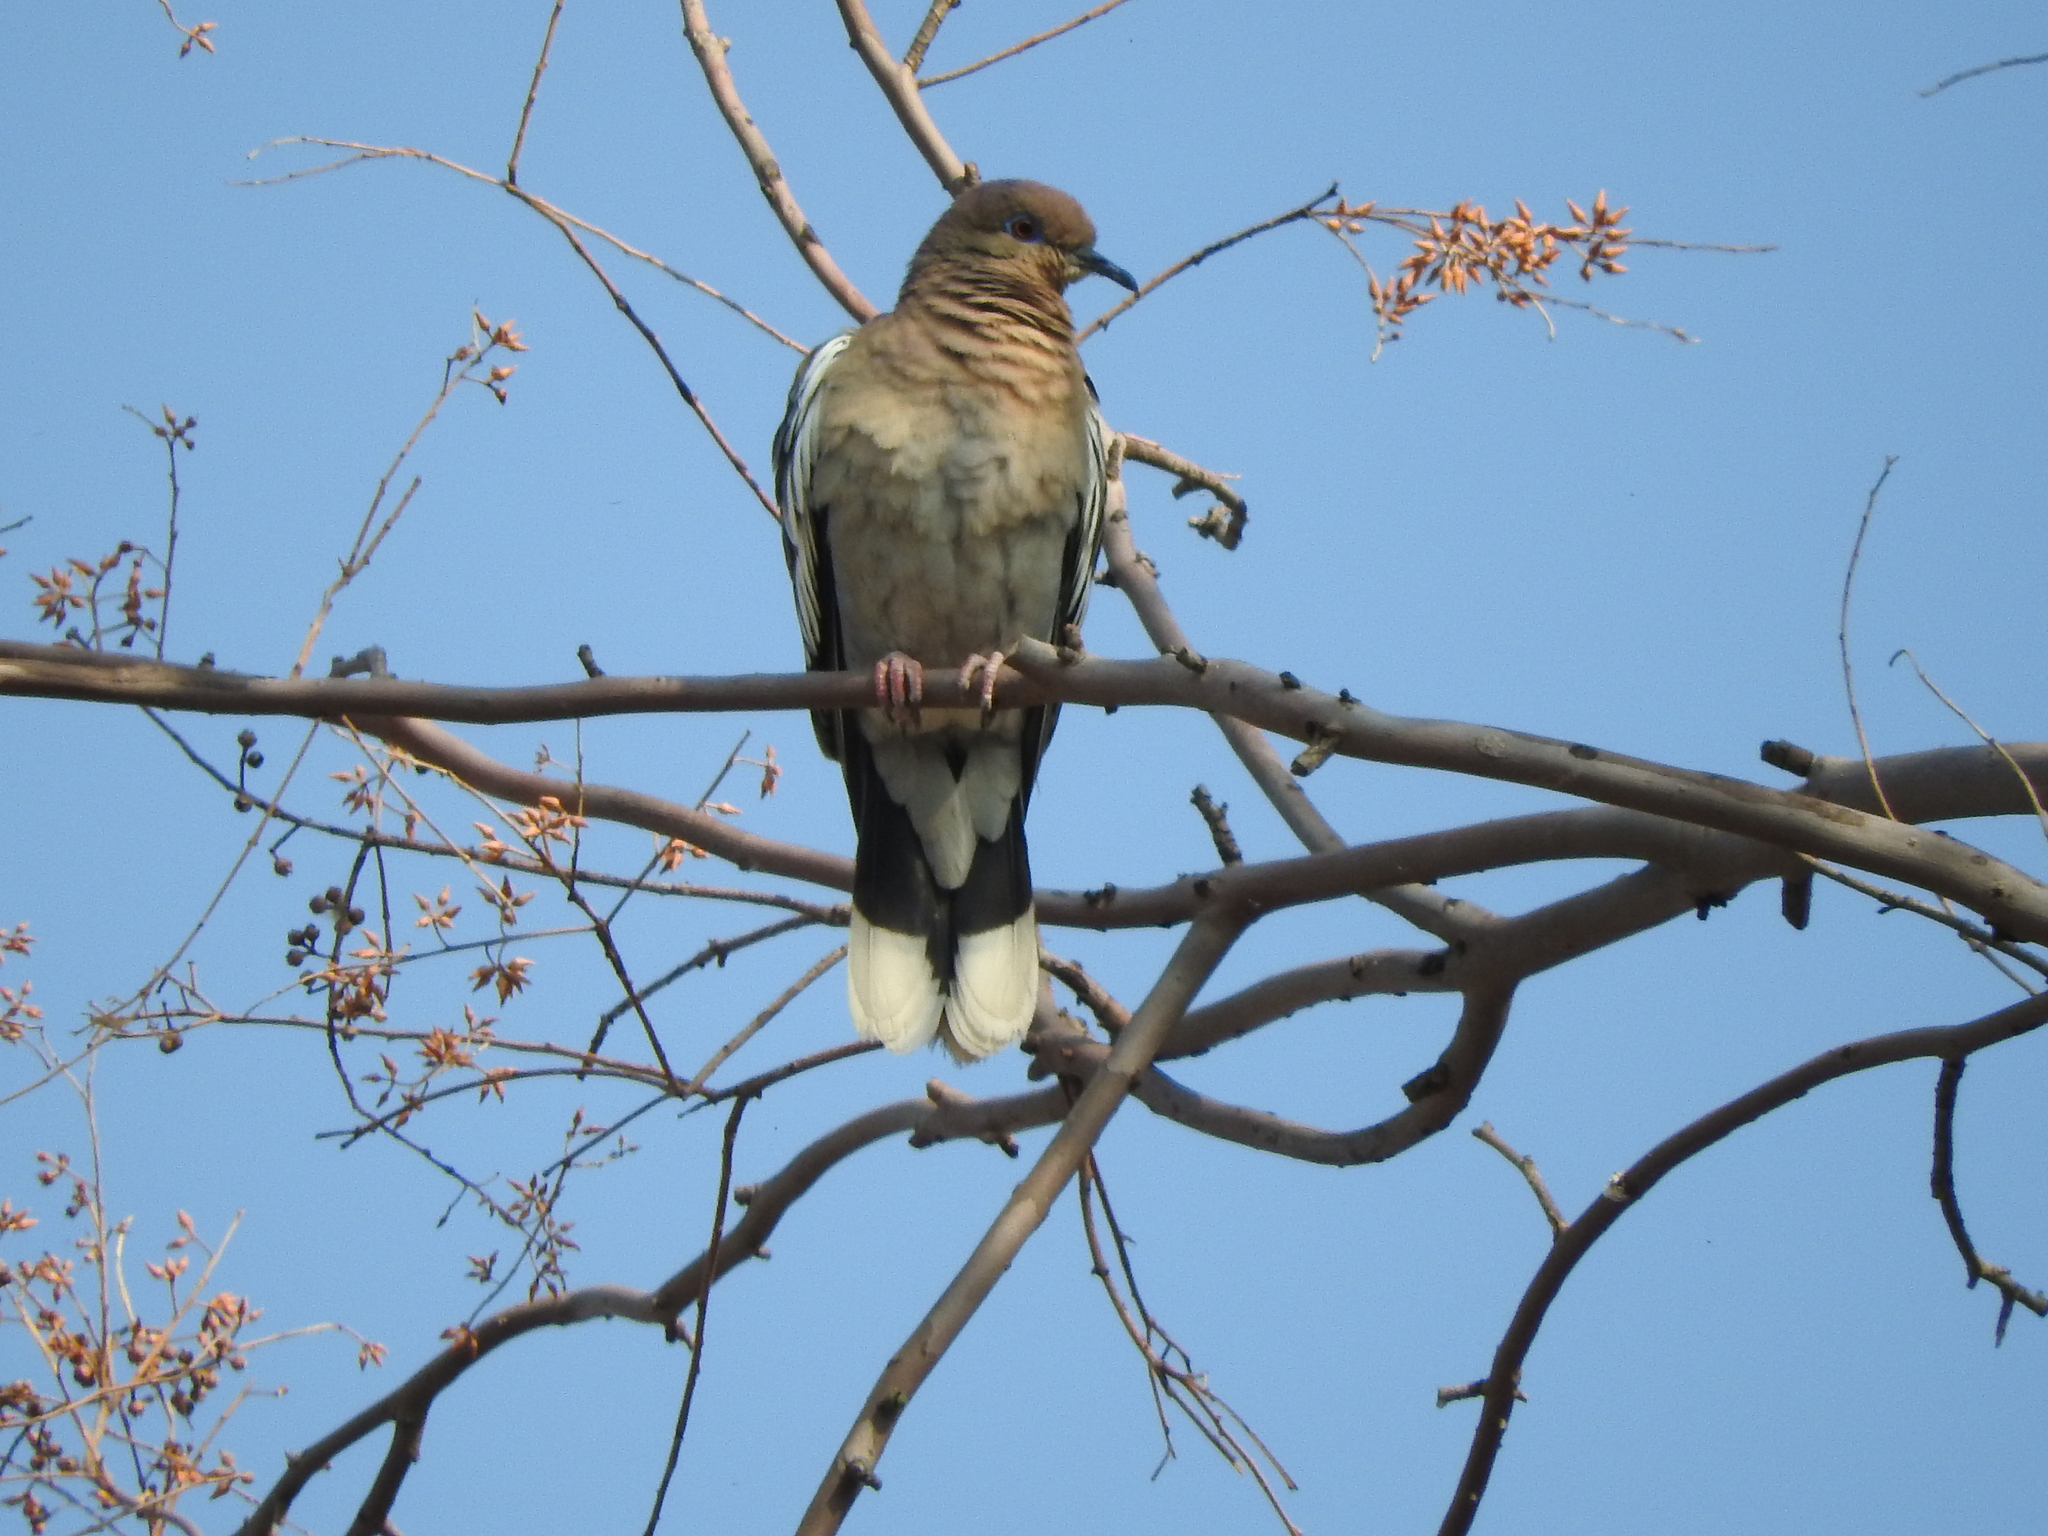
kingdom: Animalia
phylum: Chordata
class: Aves
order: Columbiformes
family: Columbidae
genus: Zenaida
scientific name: Zenaida asiatica
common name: White-winged dove
